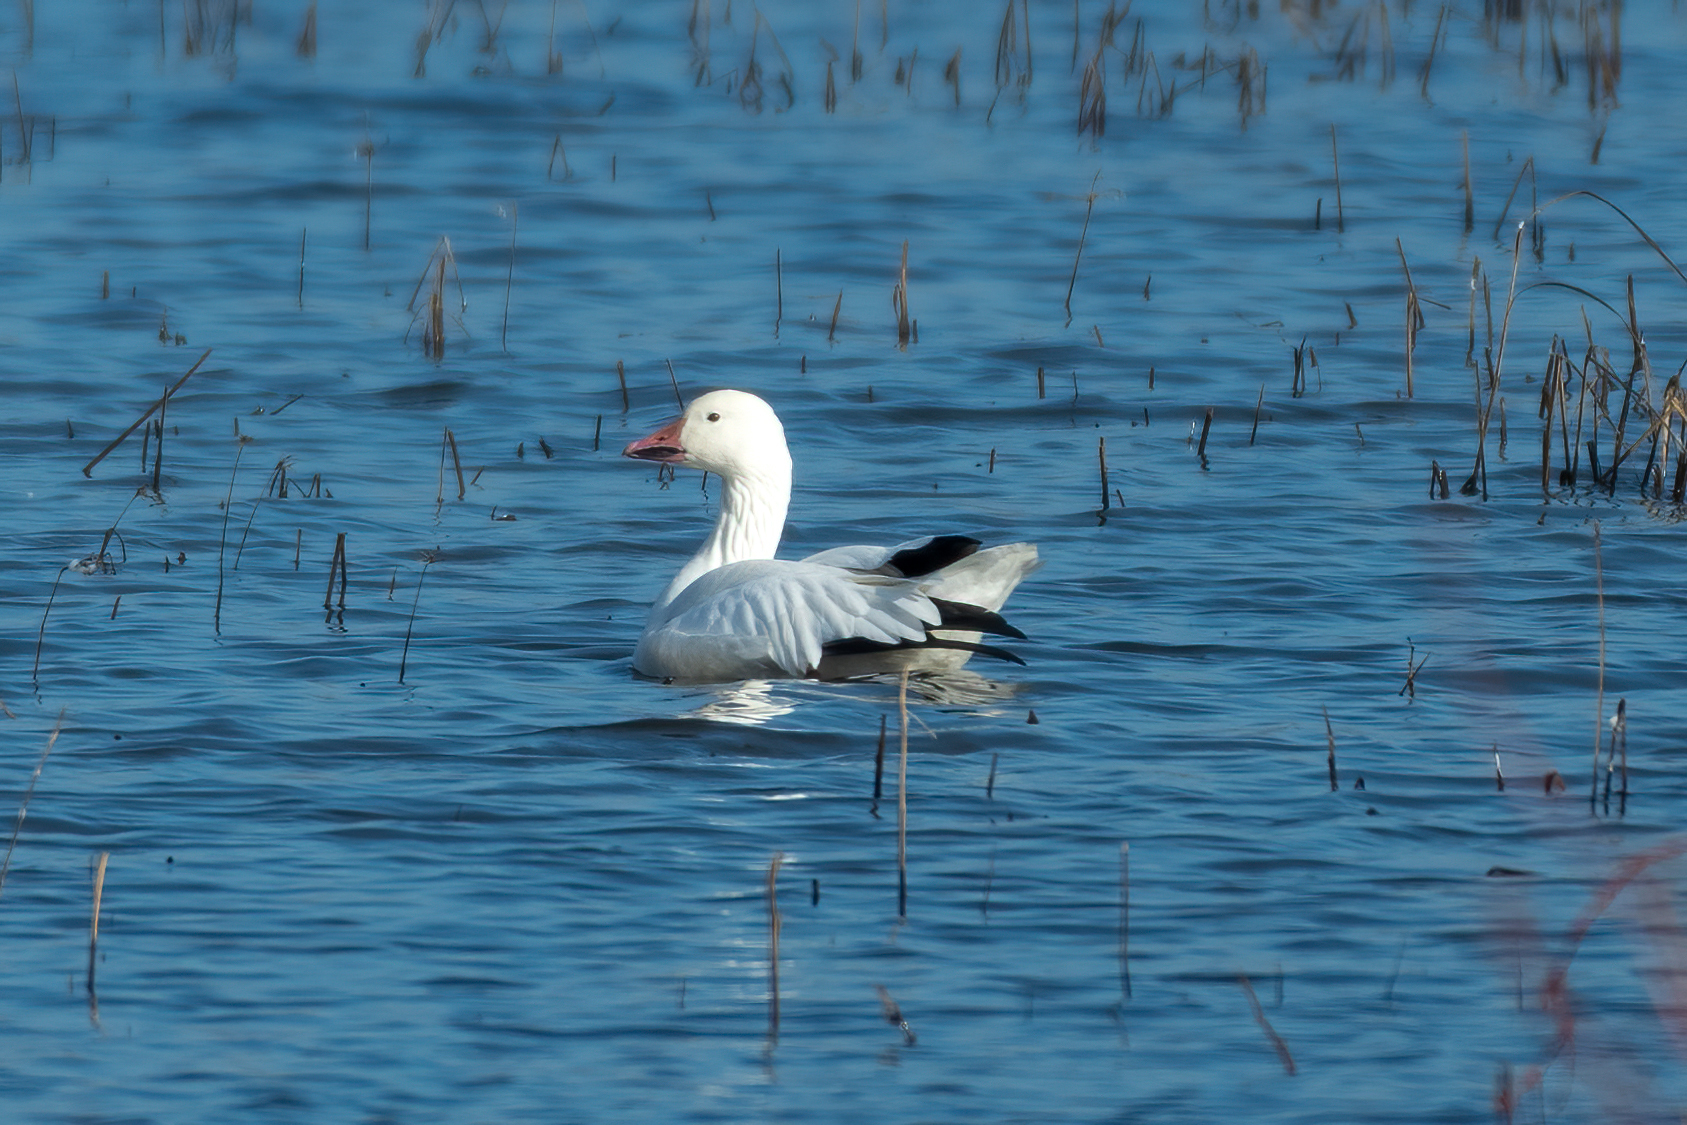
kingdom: Animalia
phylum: Chordata
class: Aves
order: Anseriformes
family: Anatidae
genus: Anser
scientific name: Anser caerulescens
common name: Snow goose
